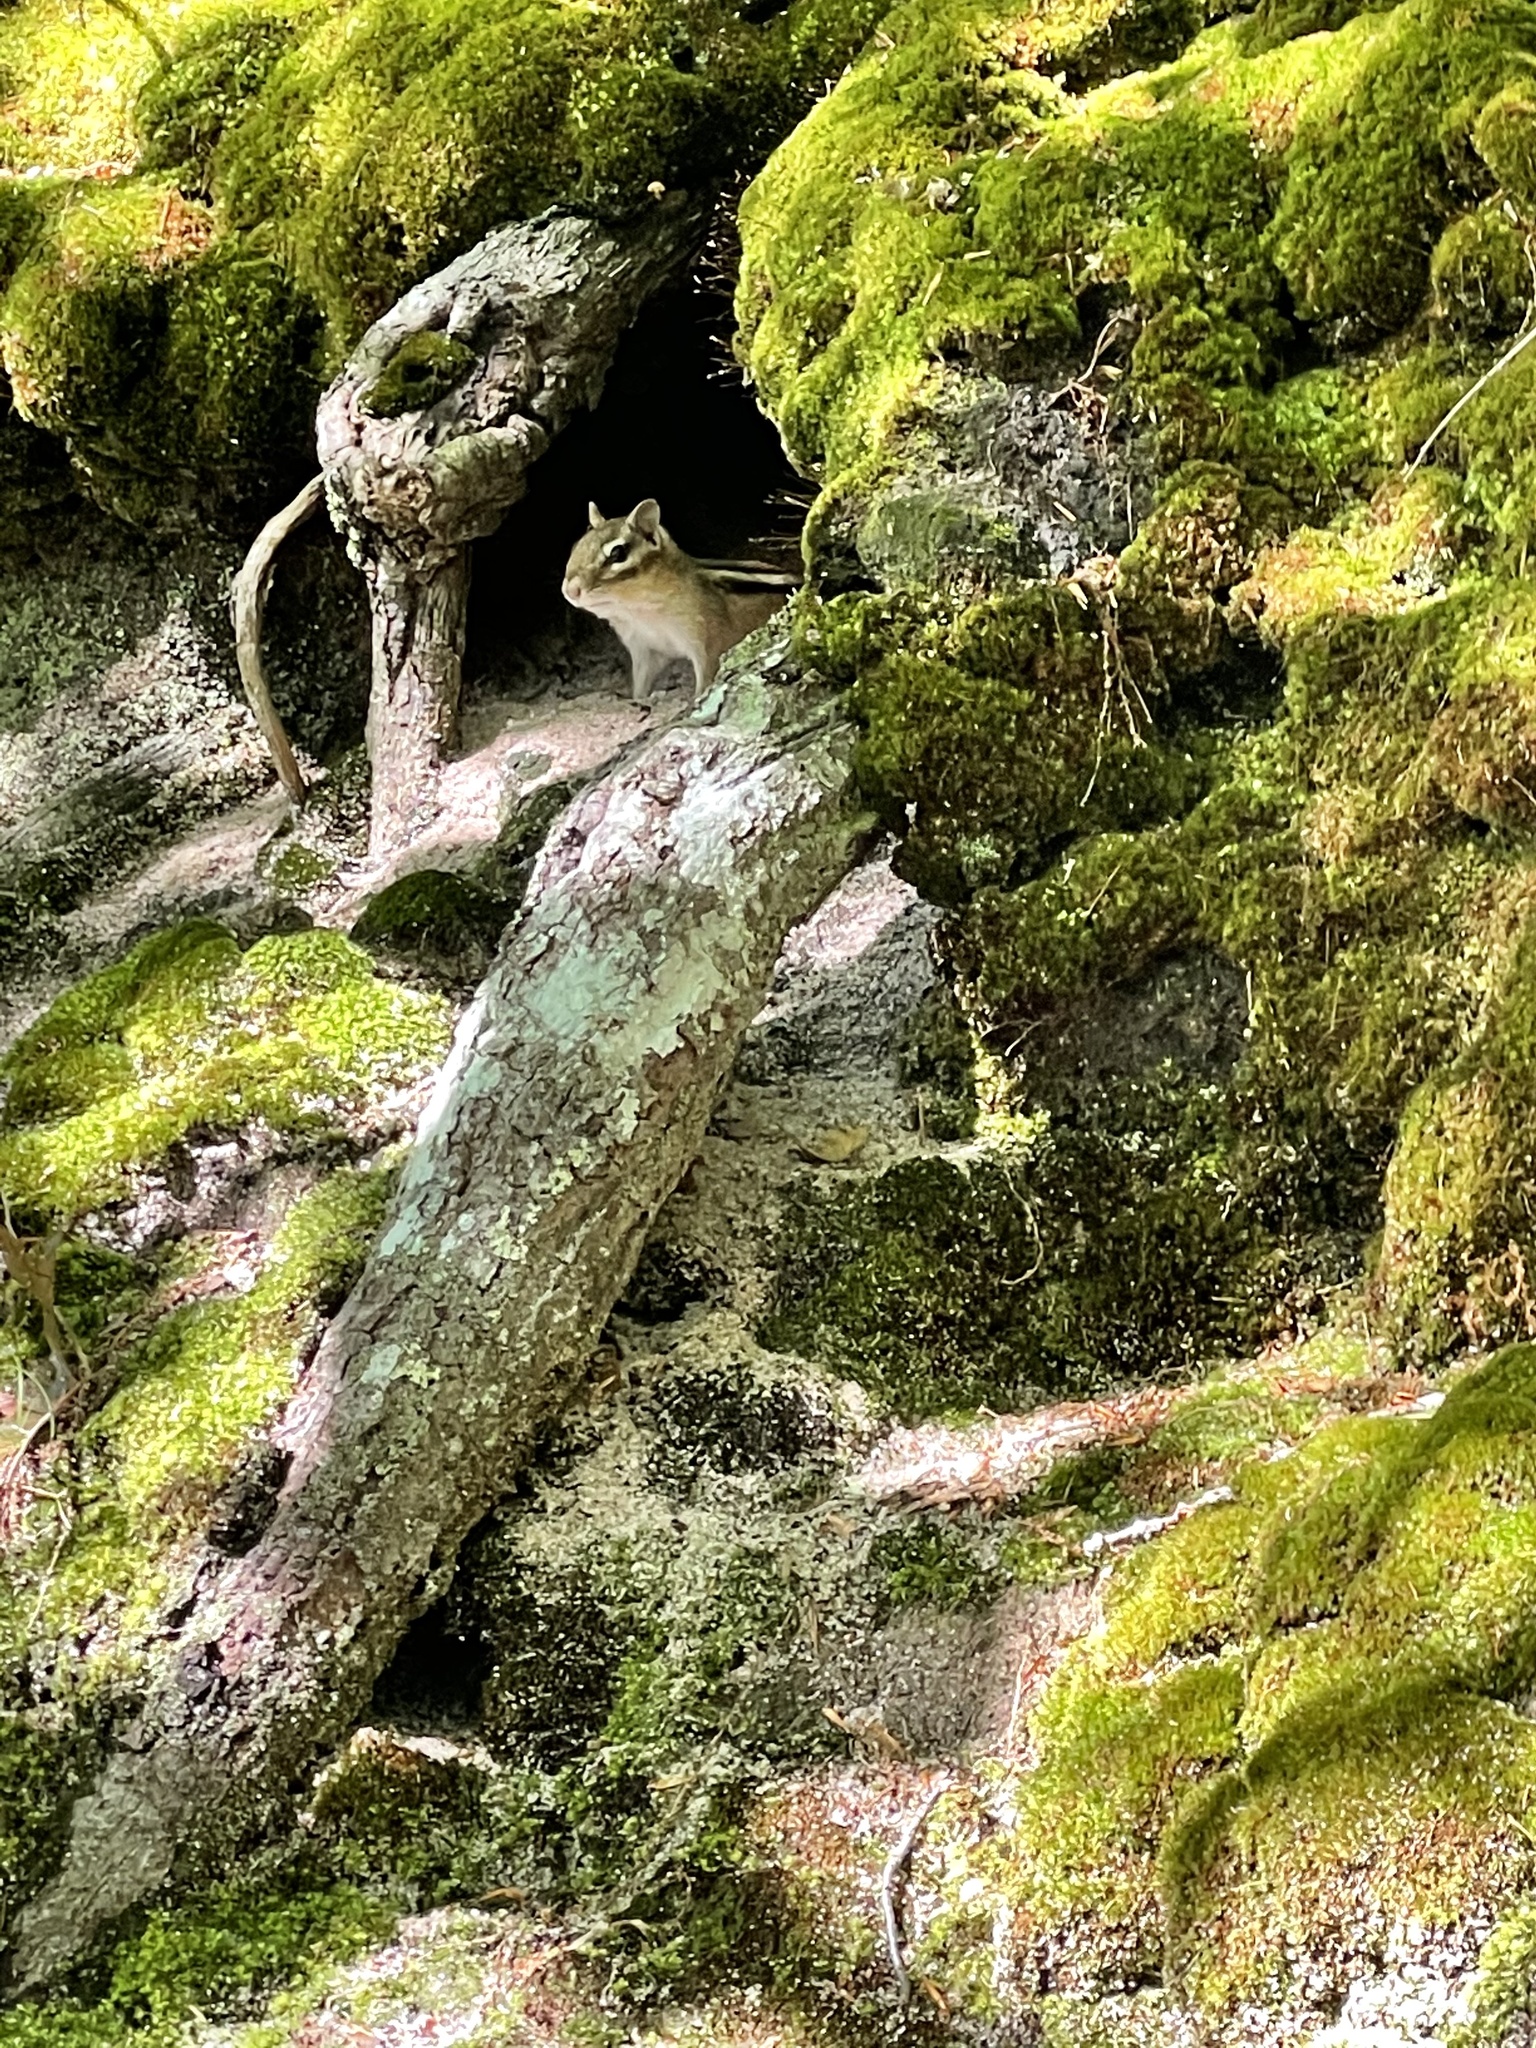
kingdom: Animalia
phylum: Chordata
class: Mammalia
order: Rodentia
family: Sciuridae
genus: Tamias
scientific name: Tamias striatus
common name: Eastern chipmunk
